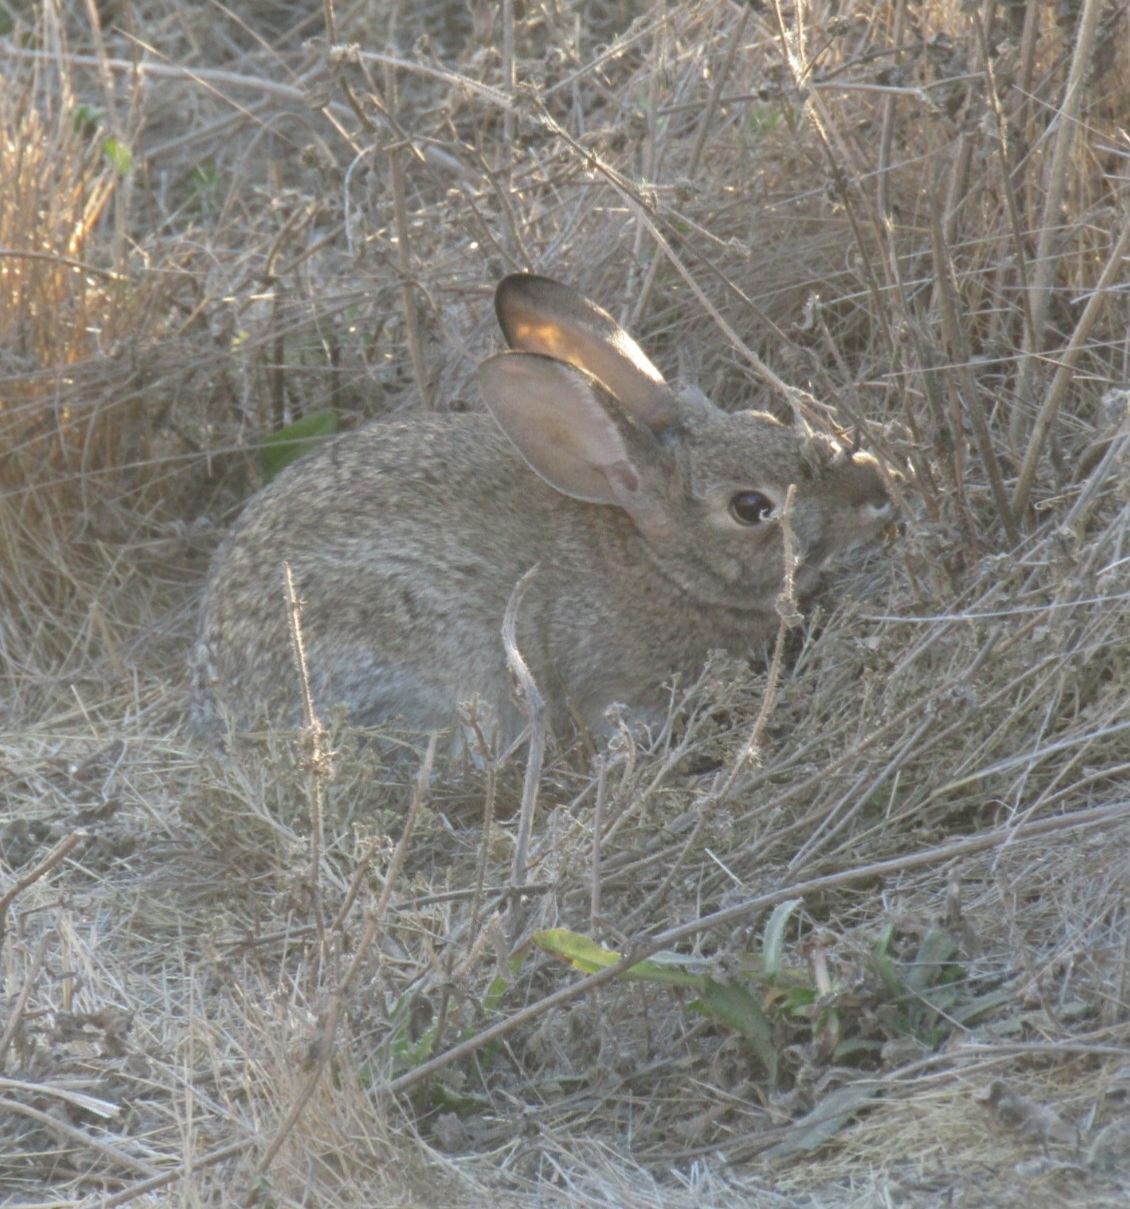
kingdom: Animalia
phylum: Chordata
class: Mammalia
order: Lagomorpha
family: Leporidae
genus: Sylvilagus
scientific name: Sylvilagus audubonii
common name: Desert cottontail
